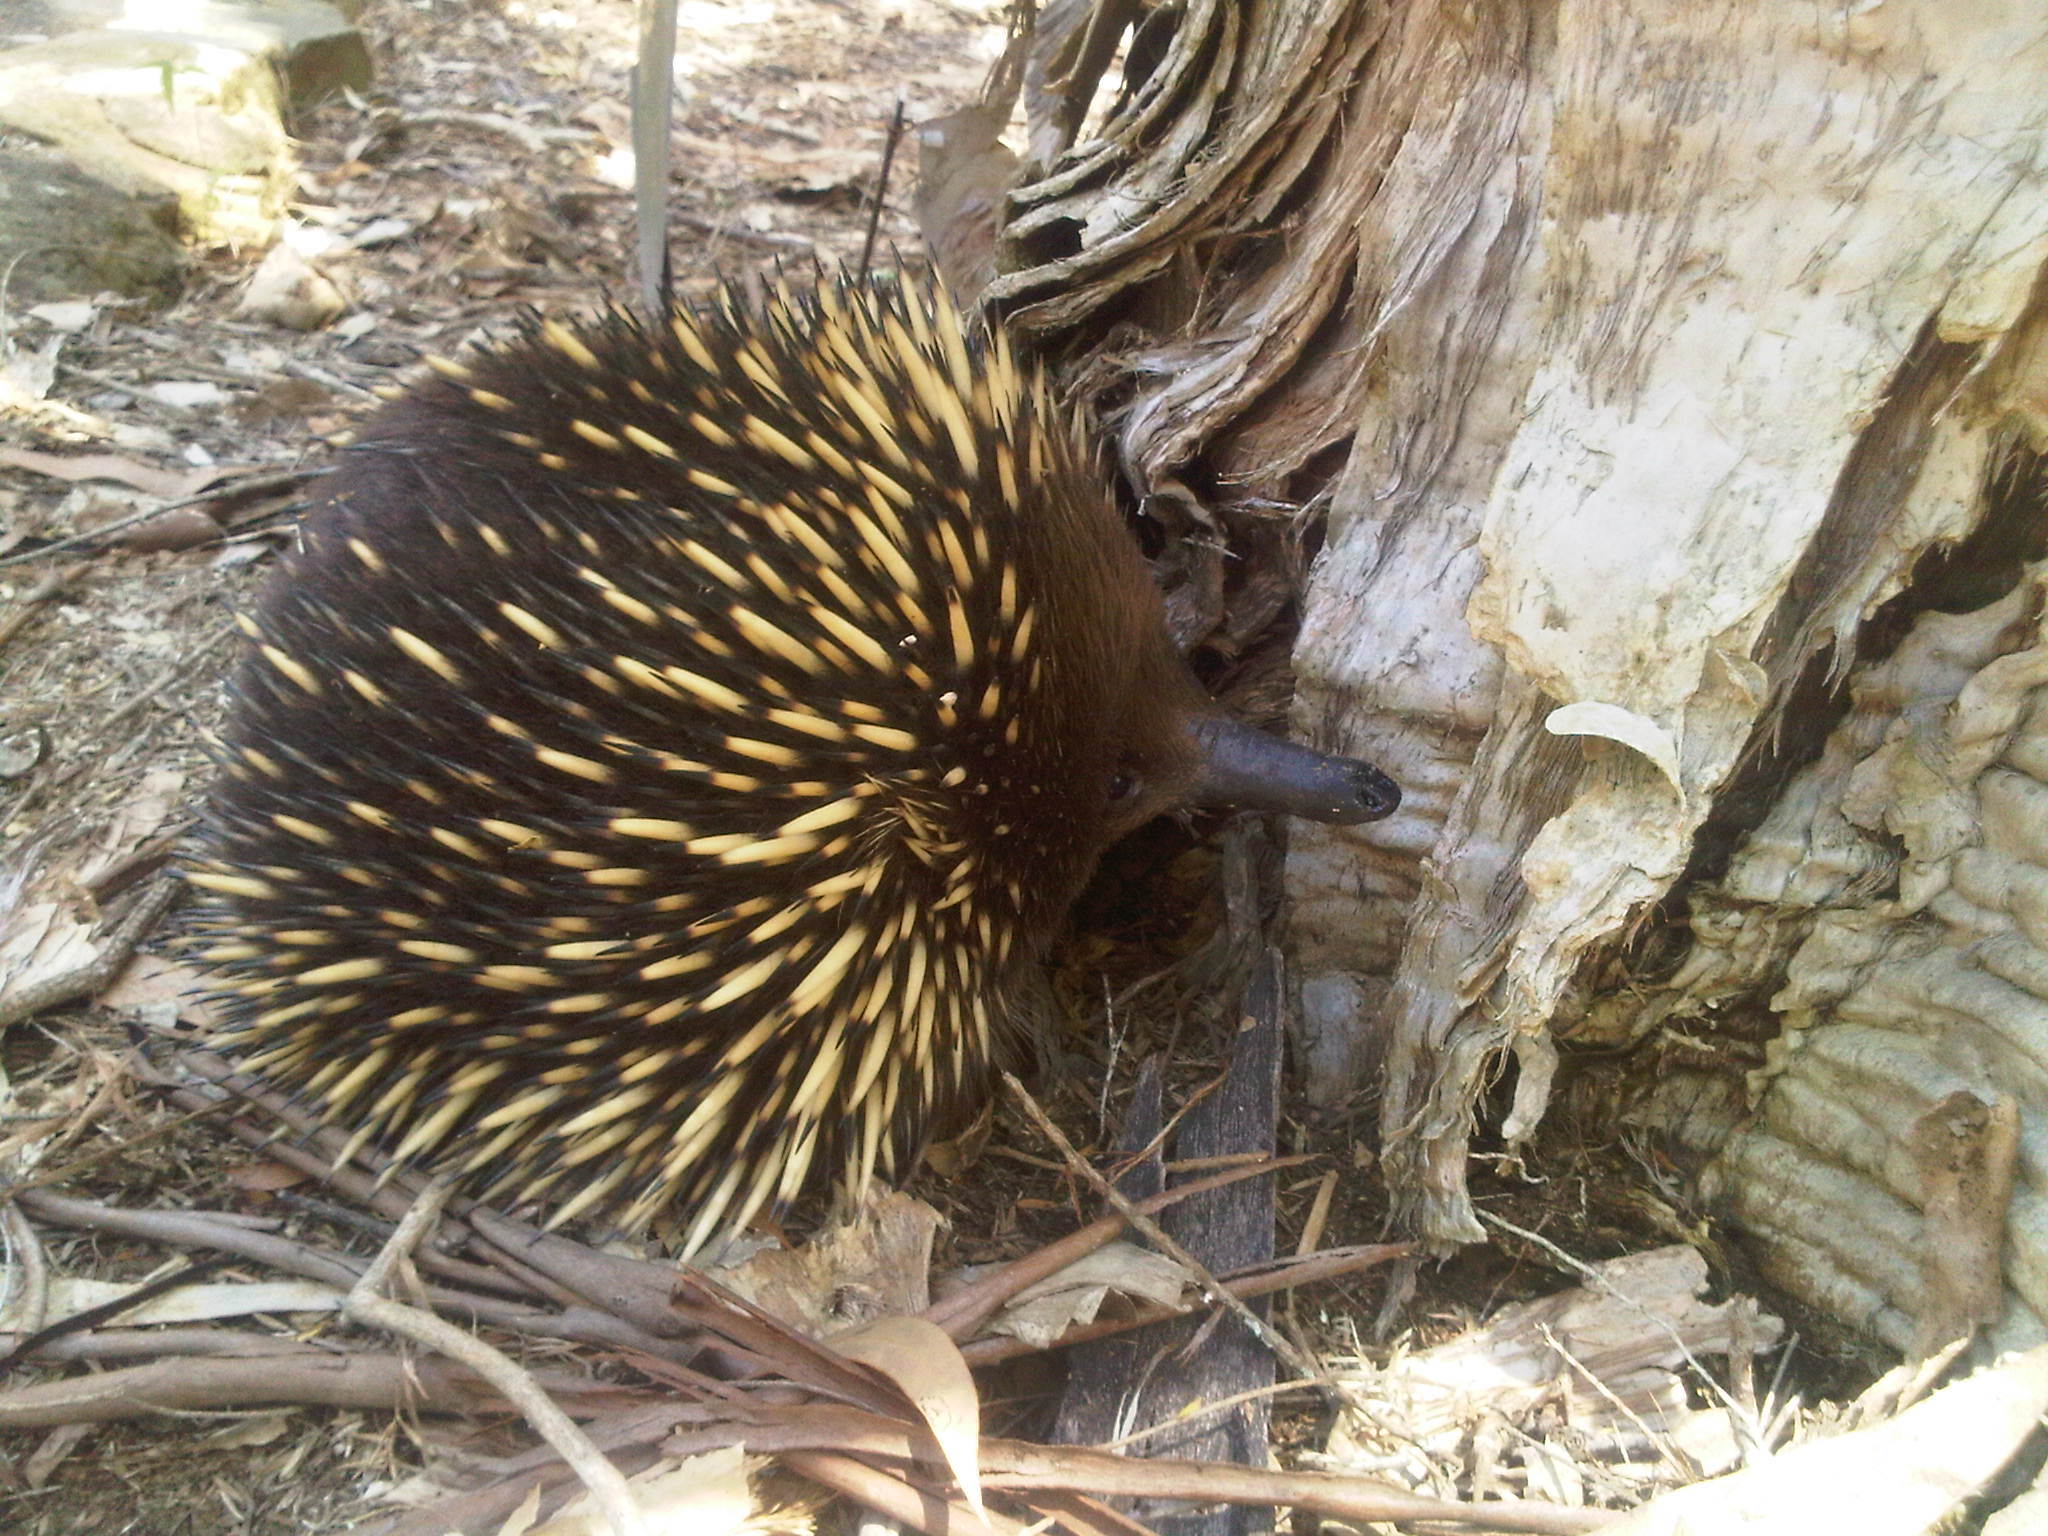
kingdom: Animalia
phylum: Chordata
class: Mammalia
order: Monotremata
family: Tachyglossidae
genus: Tachyglossus
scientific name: Tachyglossus aculeatus
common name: Short-beaked echidna
